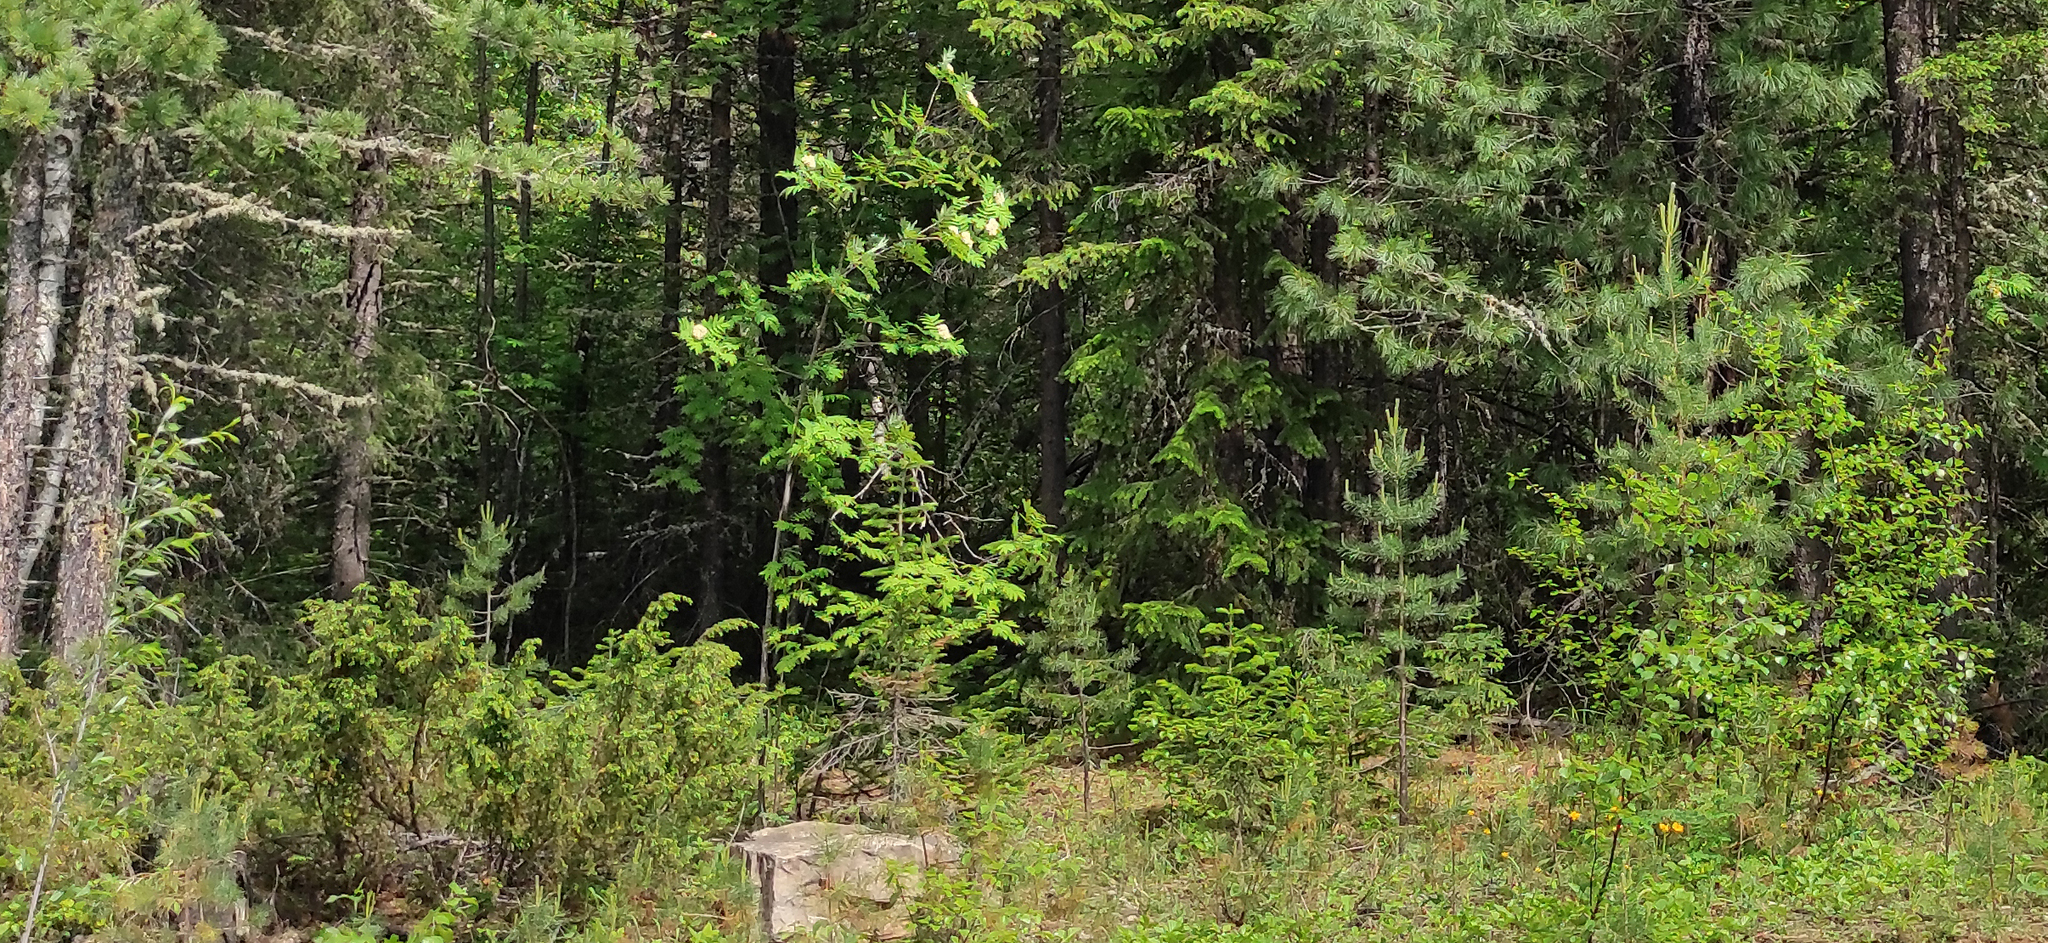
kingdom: Plantae
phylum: Tracheophyta
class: Pinopsida
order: Pinales
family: Pinaceae
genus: Pinus
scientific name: Pinus sibirica
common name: Siberian pine
